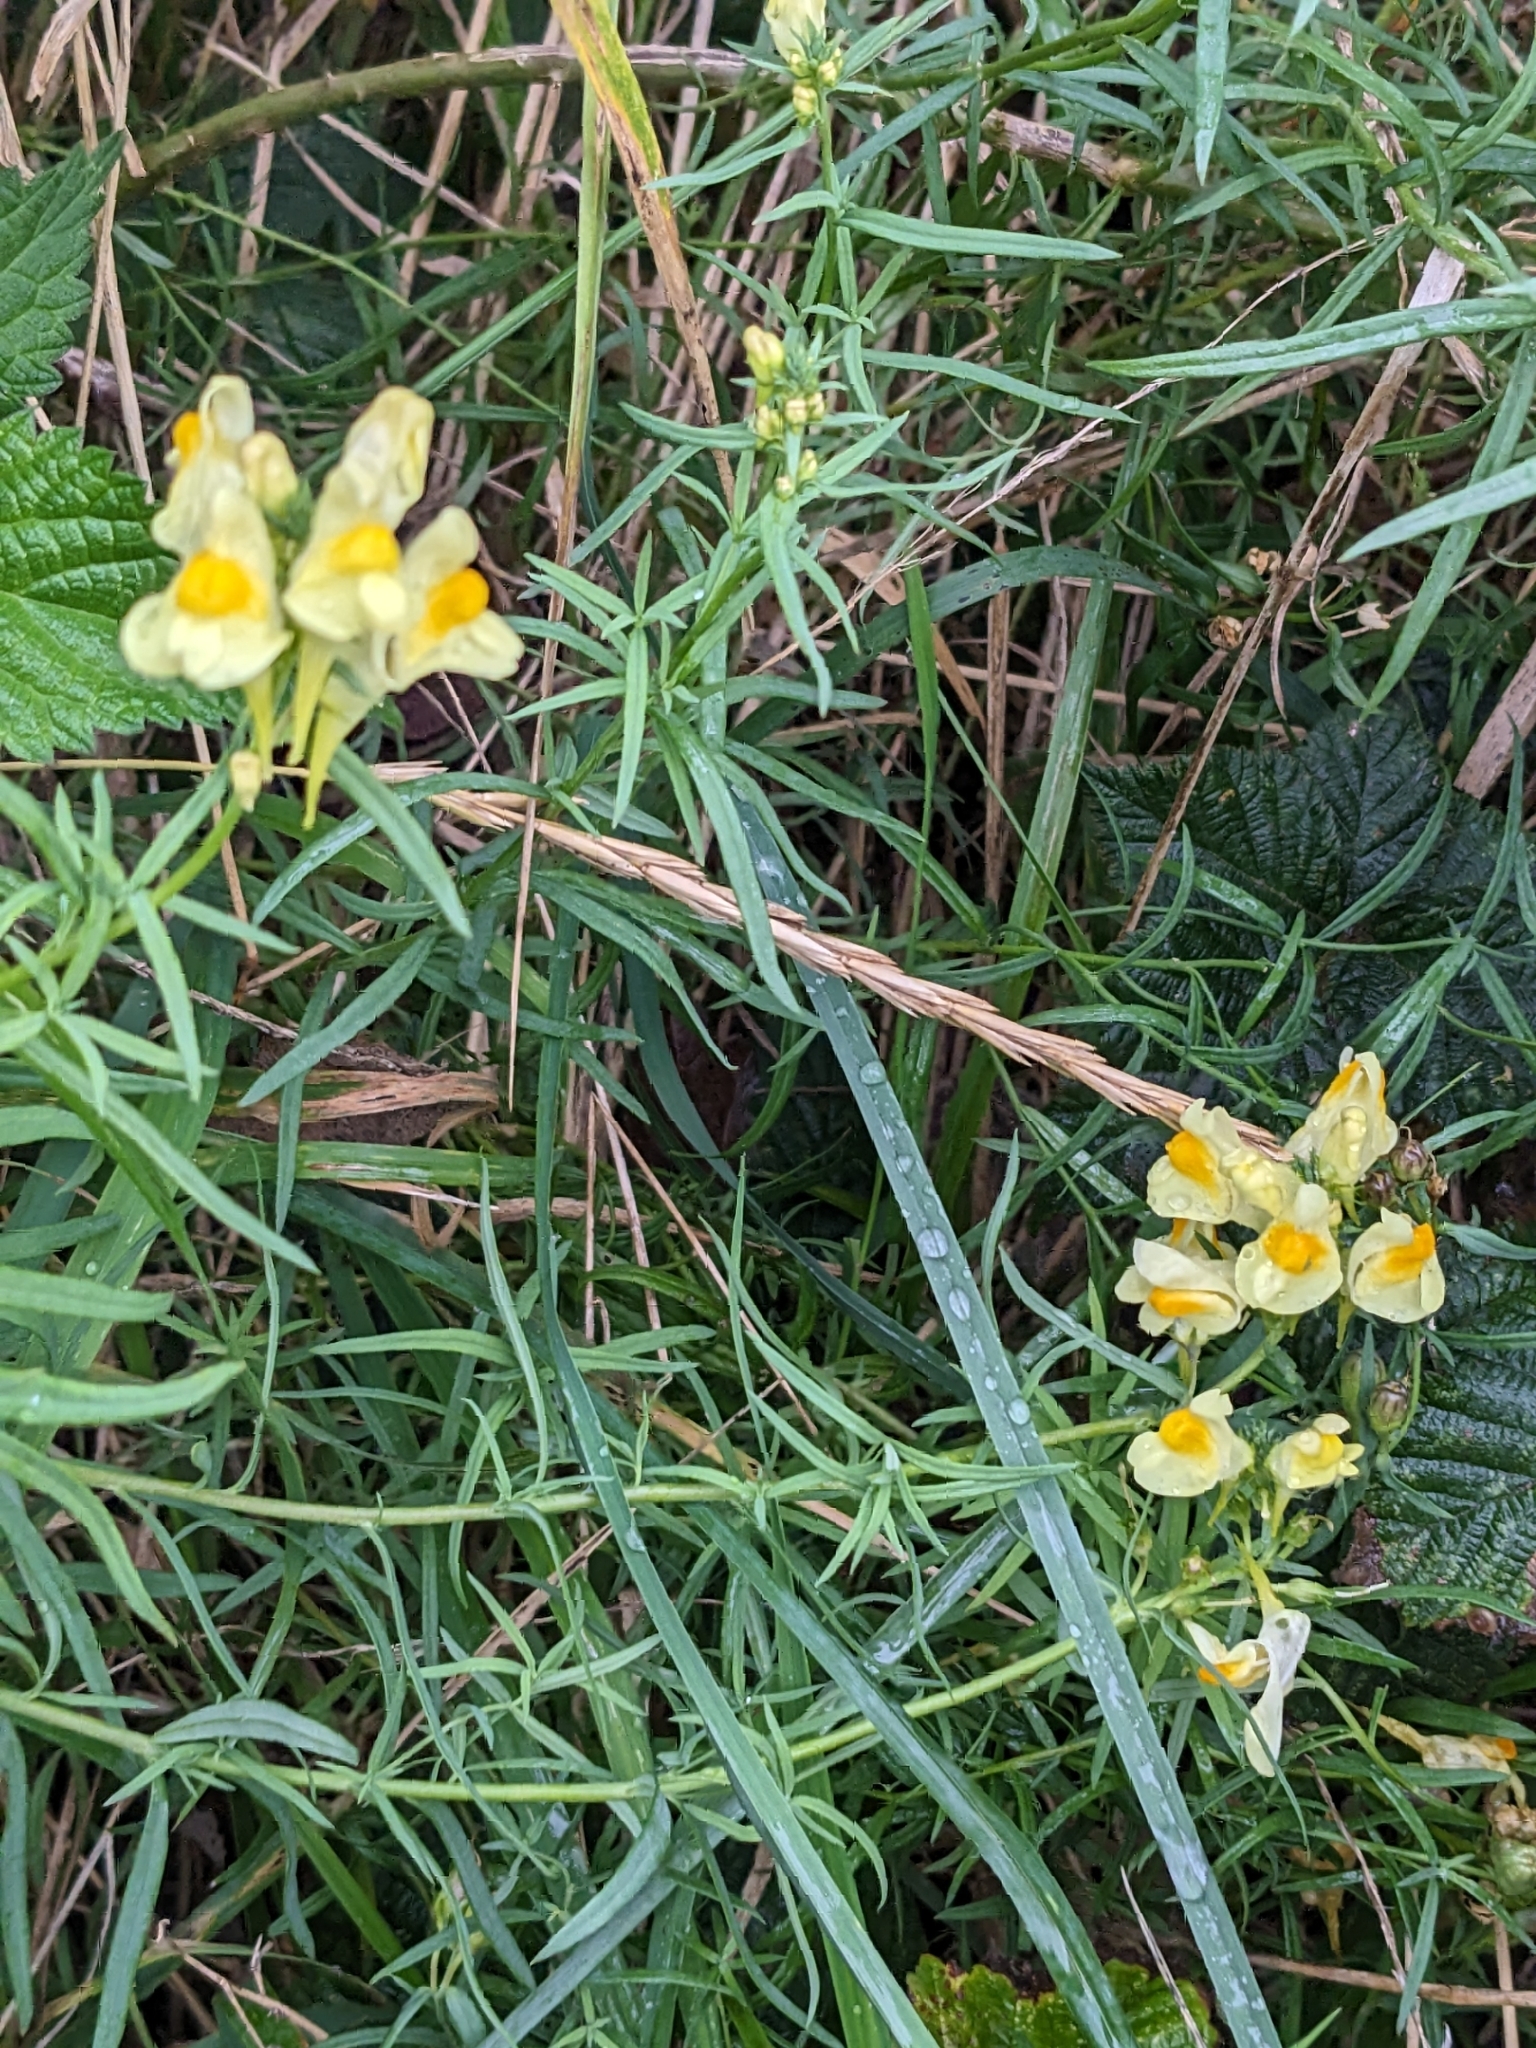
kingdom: Plantae
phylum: Tracheophyta
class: Magnoliopsida
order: Lamiales
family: Plantaginaceae
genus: Linaria
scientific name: Linaria vulgaris
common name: Butter and eggs
